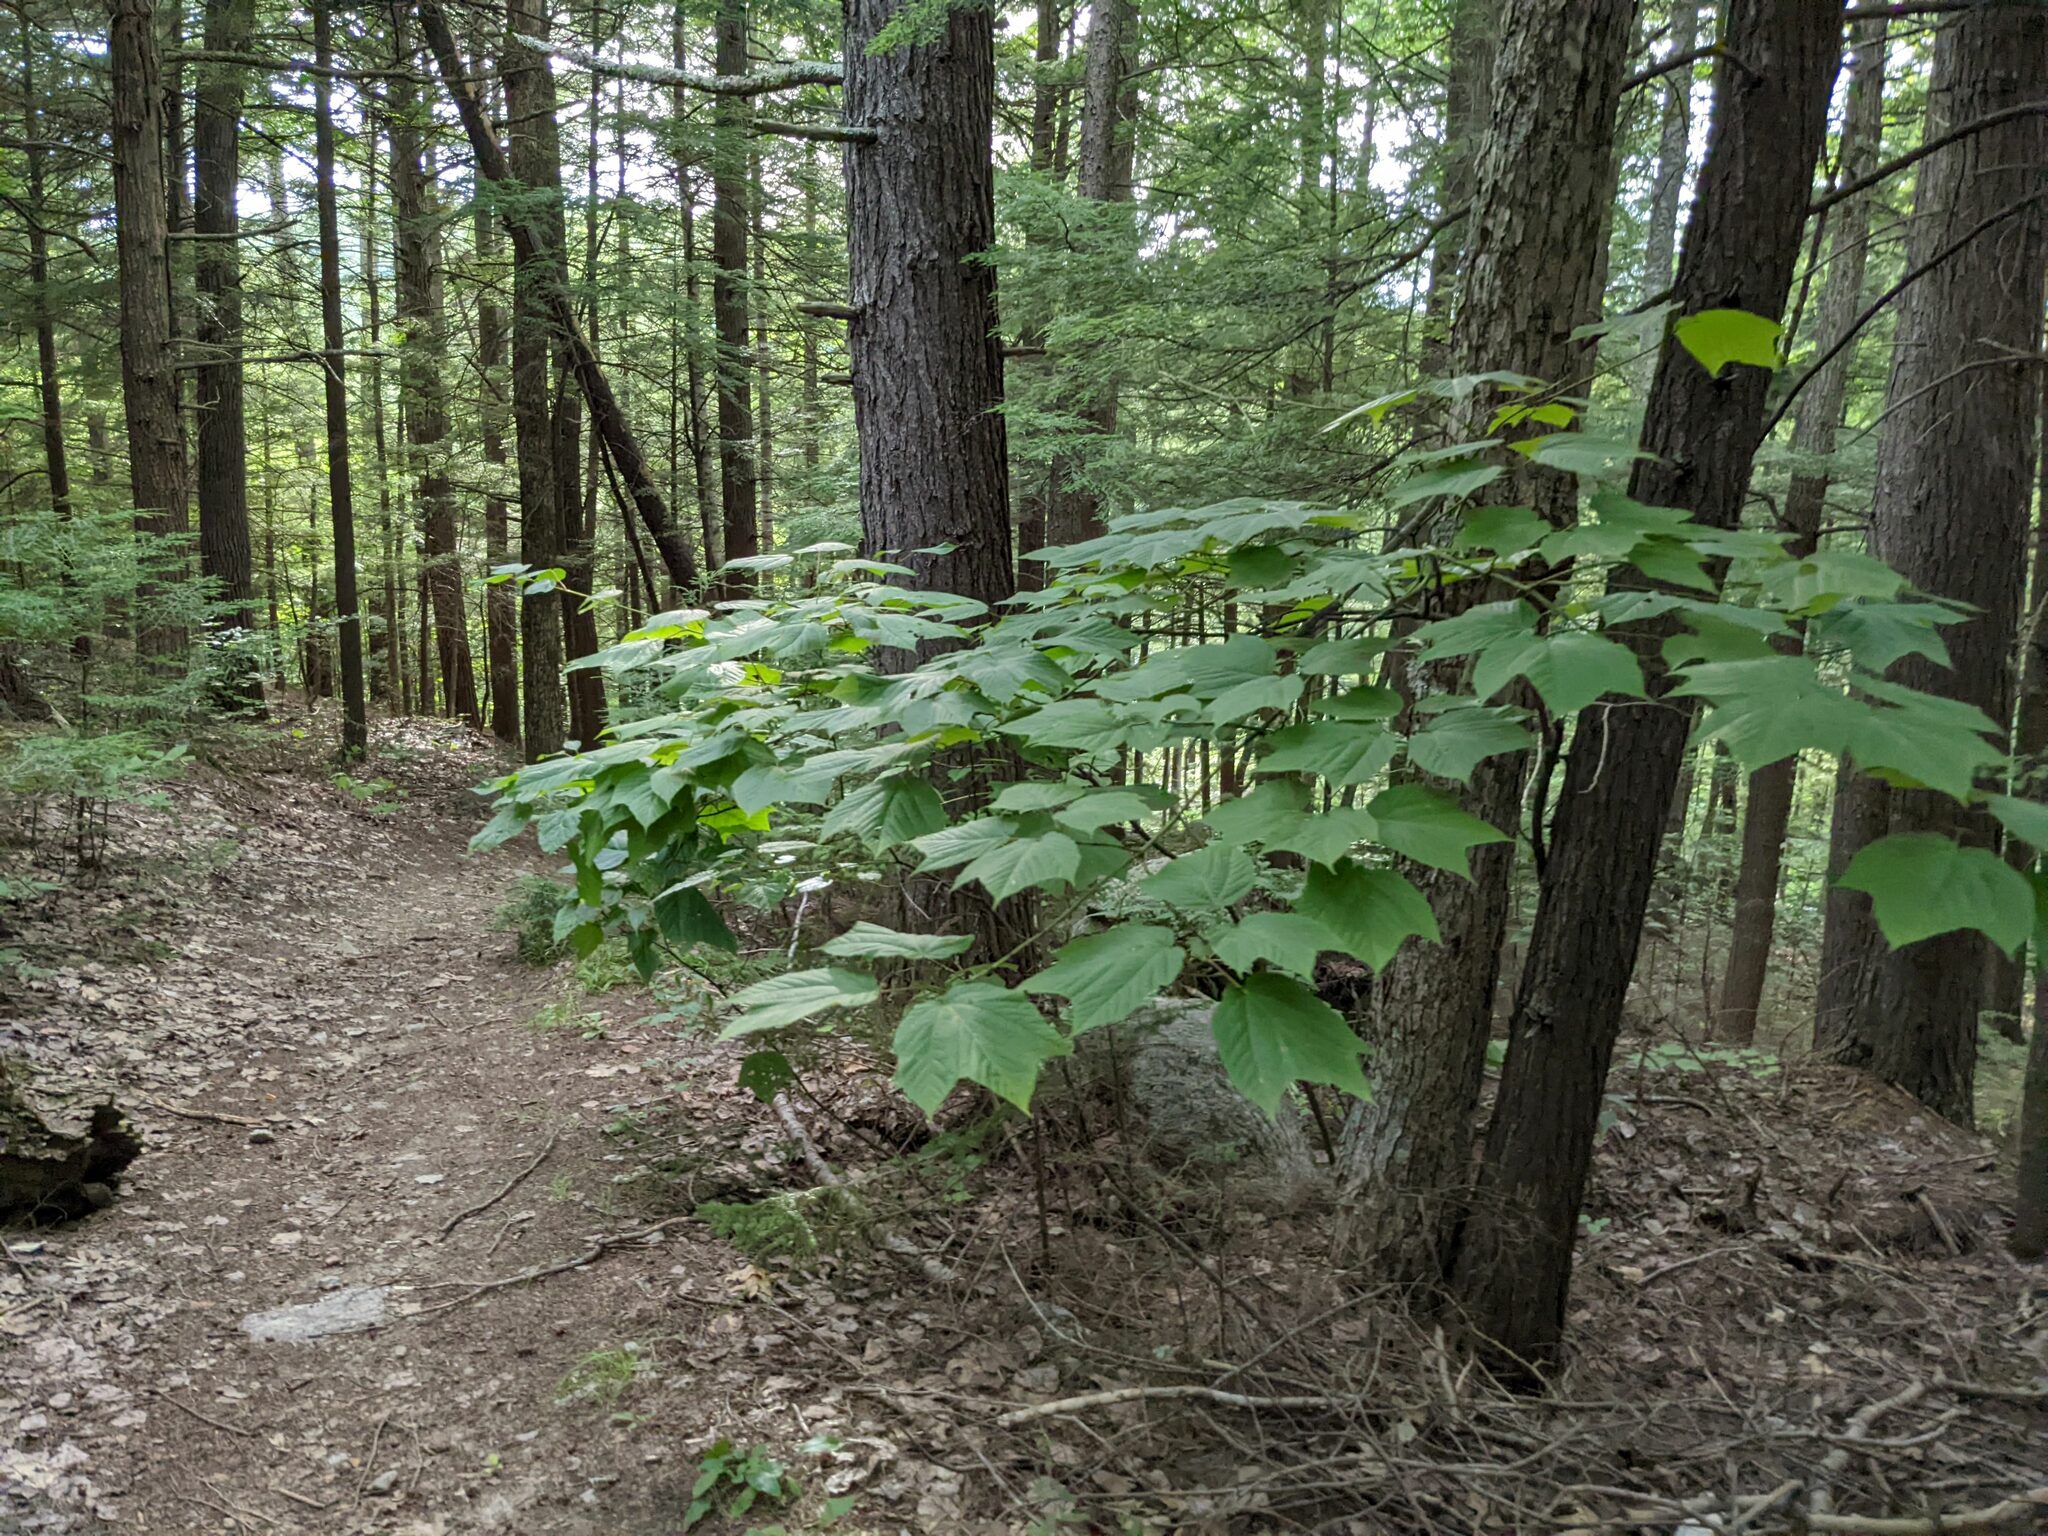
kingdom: Plantae
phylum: Tracheophyta
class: Magnoliopsida
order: Sapindales
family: Sapindaceae
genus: Acer
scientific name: Acer pensylvanicum
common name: Moosewood
